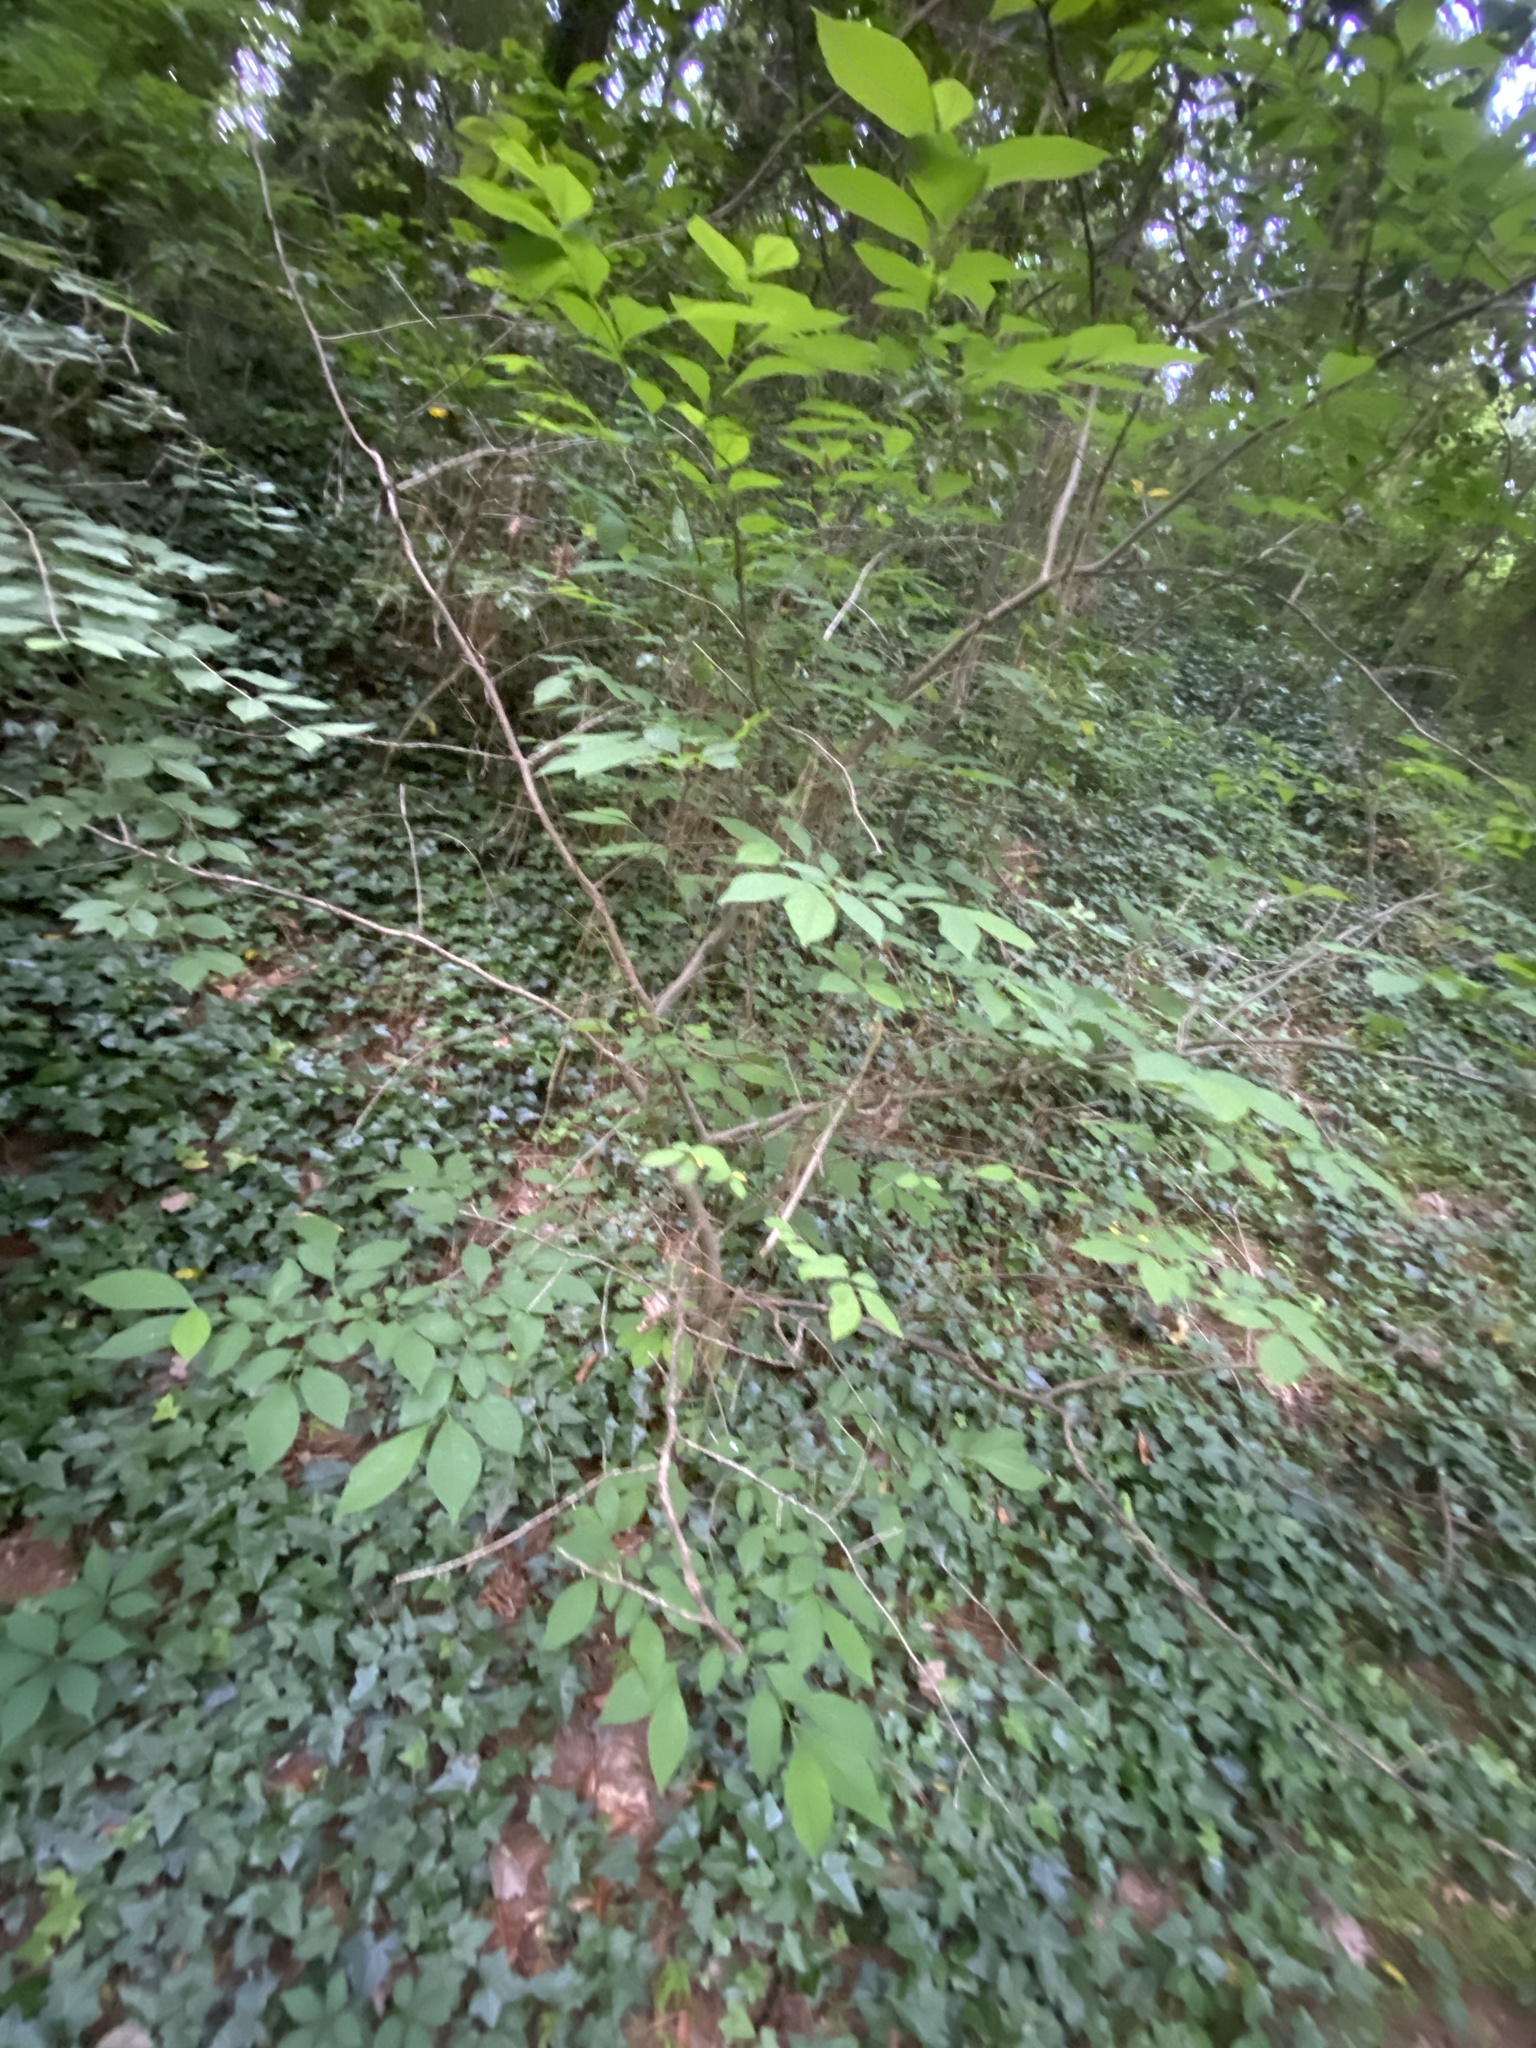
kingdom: Plantae
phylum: Tracheophyta
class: Magnoliopsida
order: Laurales
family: Lauraceae
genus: Lindera
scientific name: Lindera benzoin
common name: Spicebush
